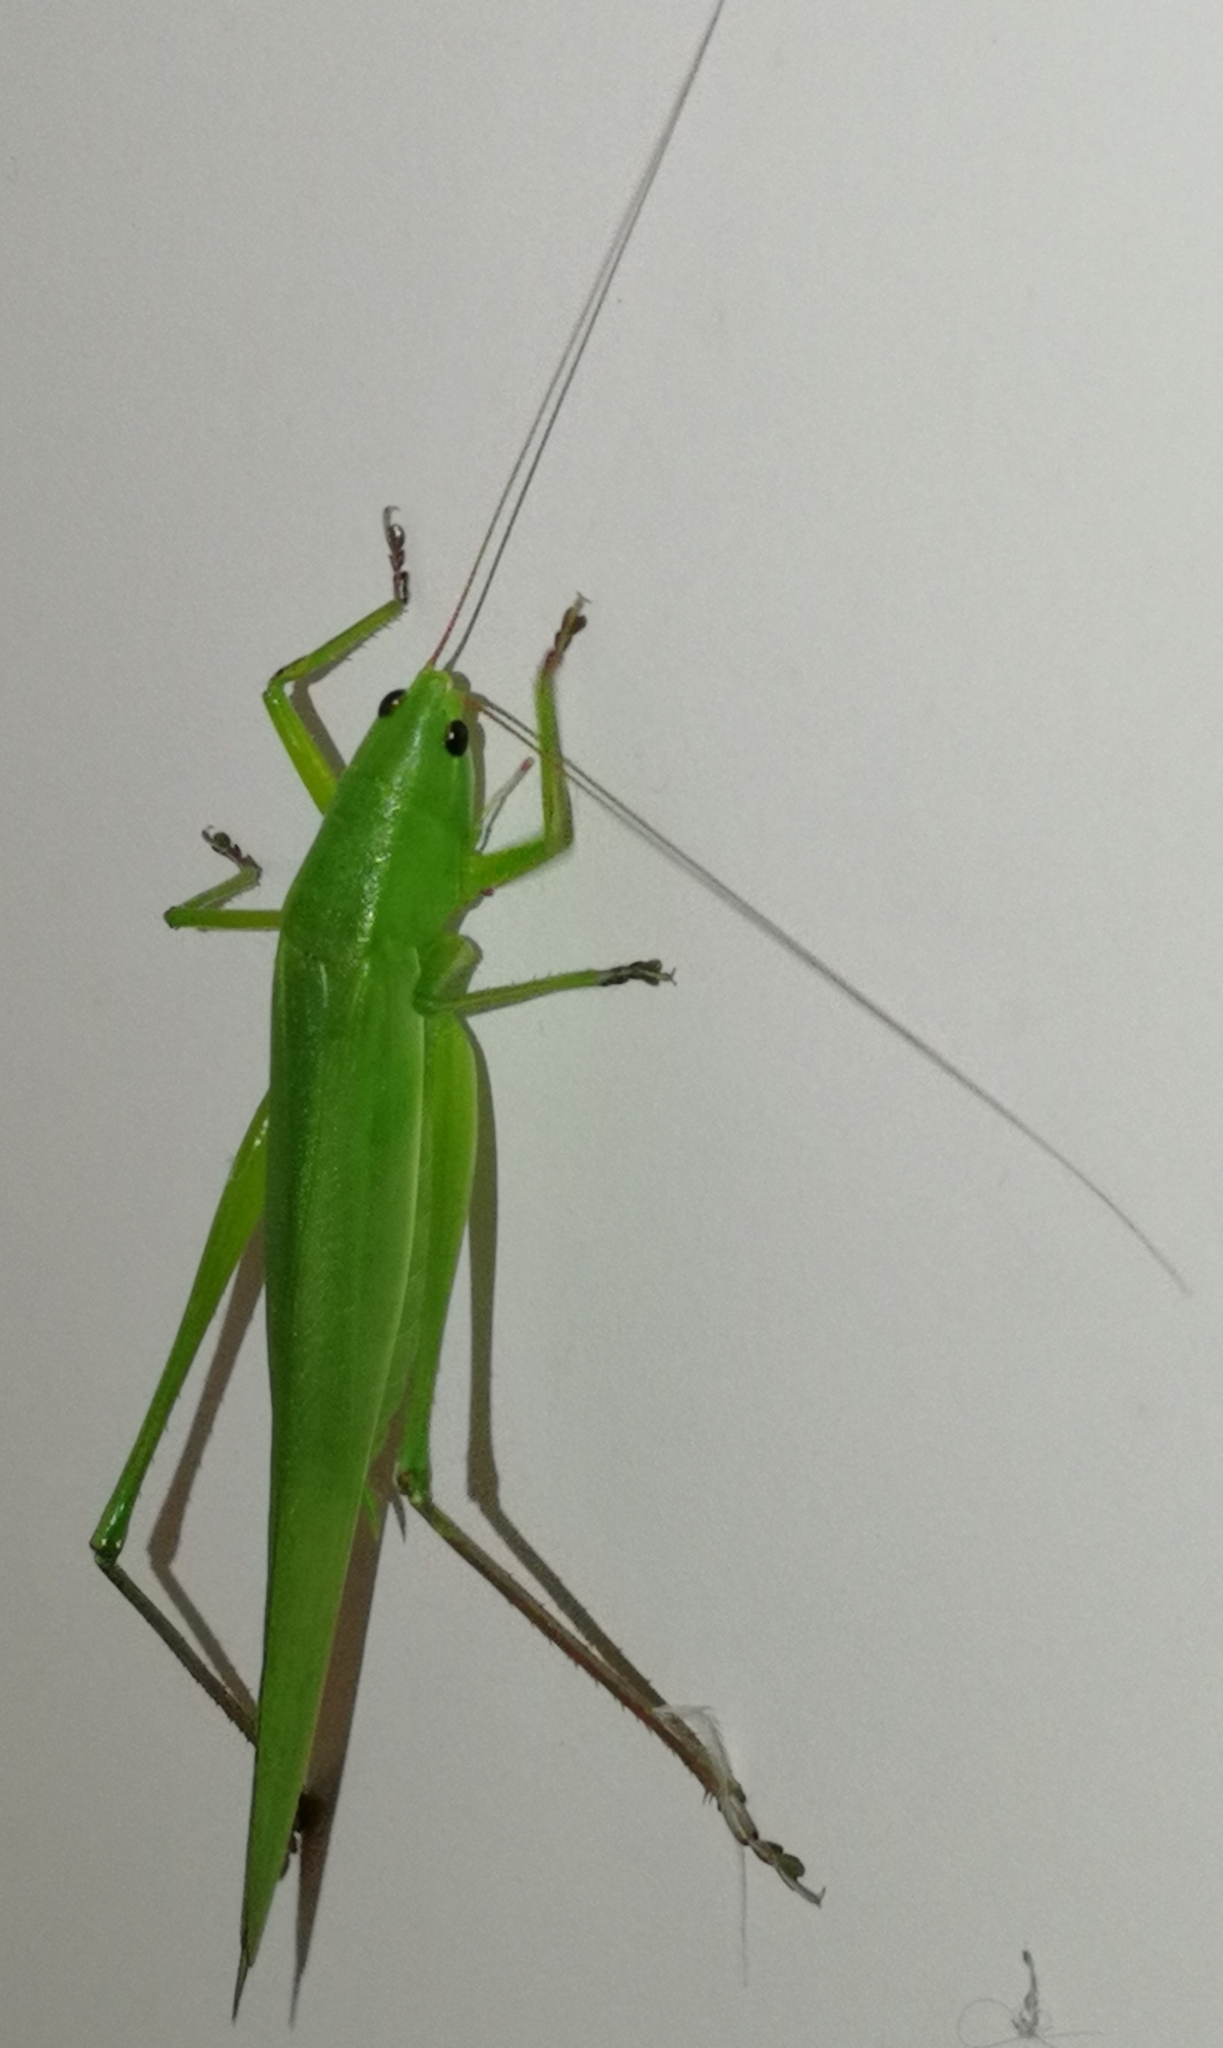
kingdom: Animalia
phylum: Arthropoda
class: Insecta
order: Orthoptera
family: Tettigoniidae
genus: Ruspolia
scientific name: Ruspolia nitidula
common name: Large conehead
